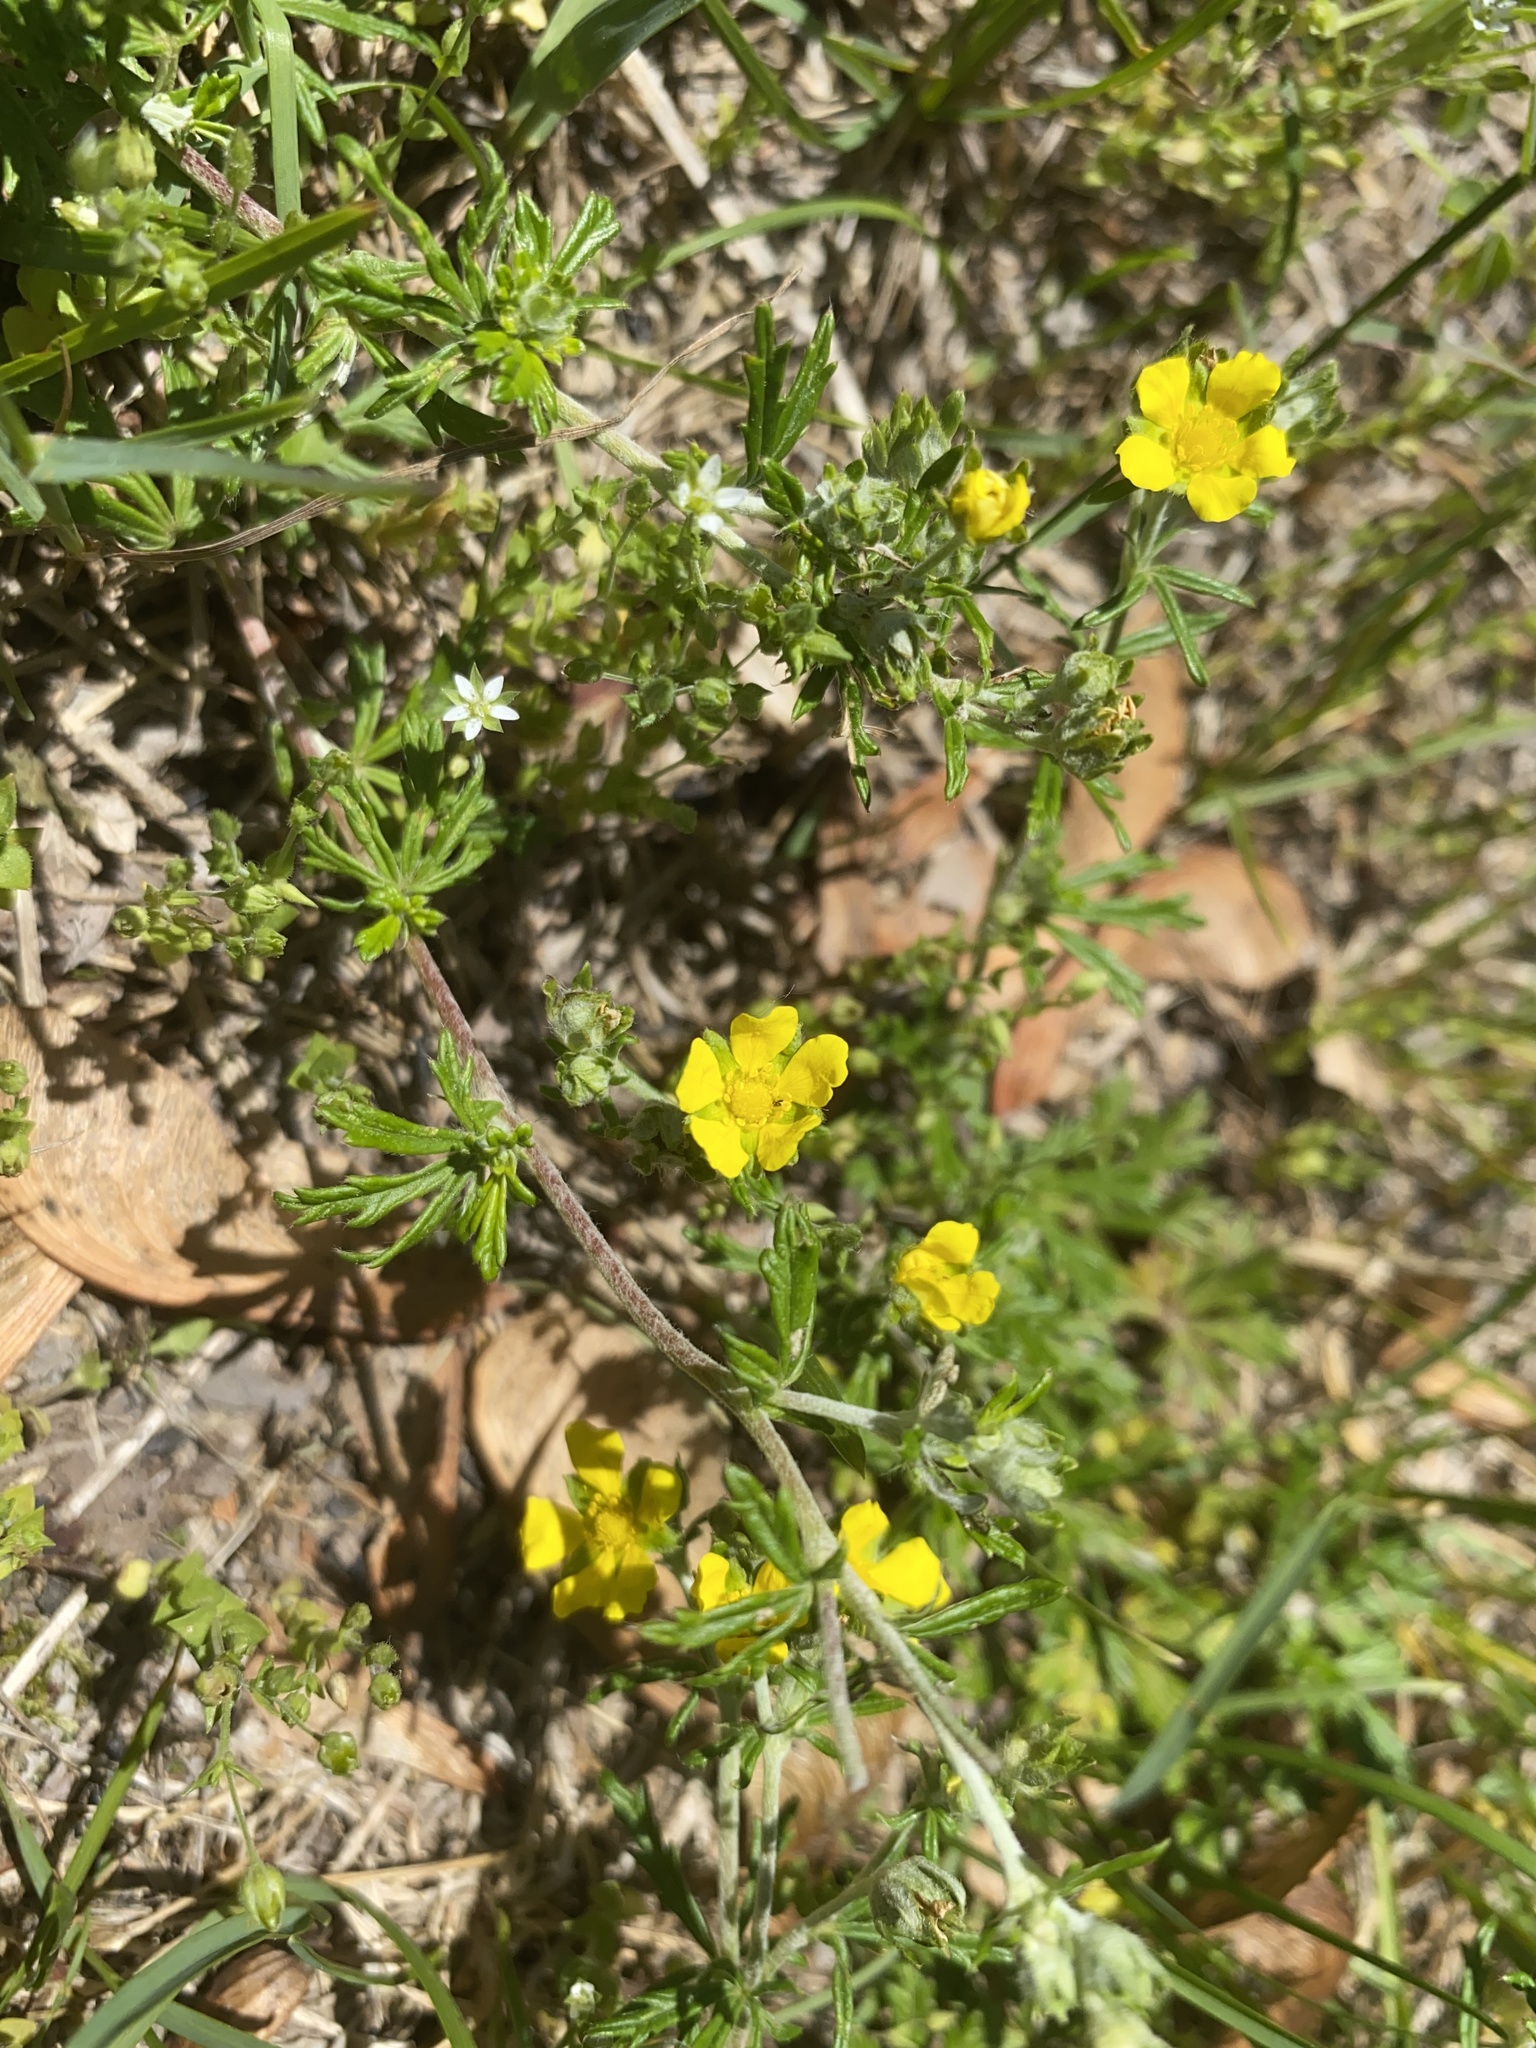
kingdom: Plantae
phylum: Tracheophyta
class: Magnoliopsida
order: Rosales
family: Rosaceae
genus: Potentilla
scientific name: Potentilla argentea
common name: Hoary cinquefoil
